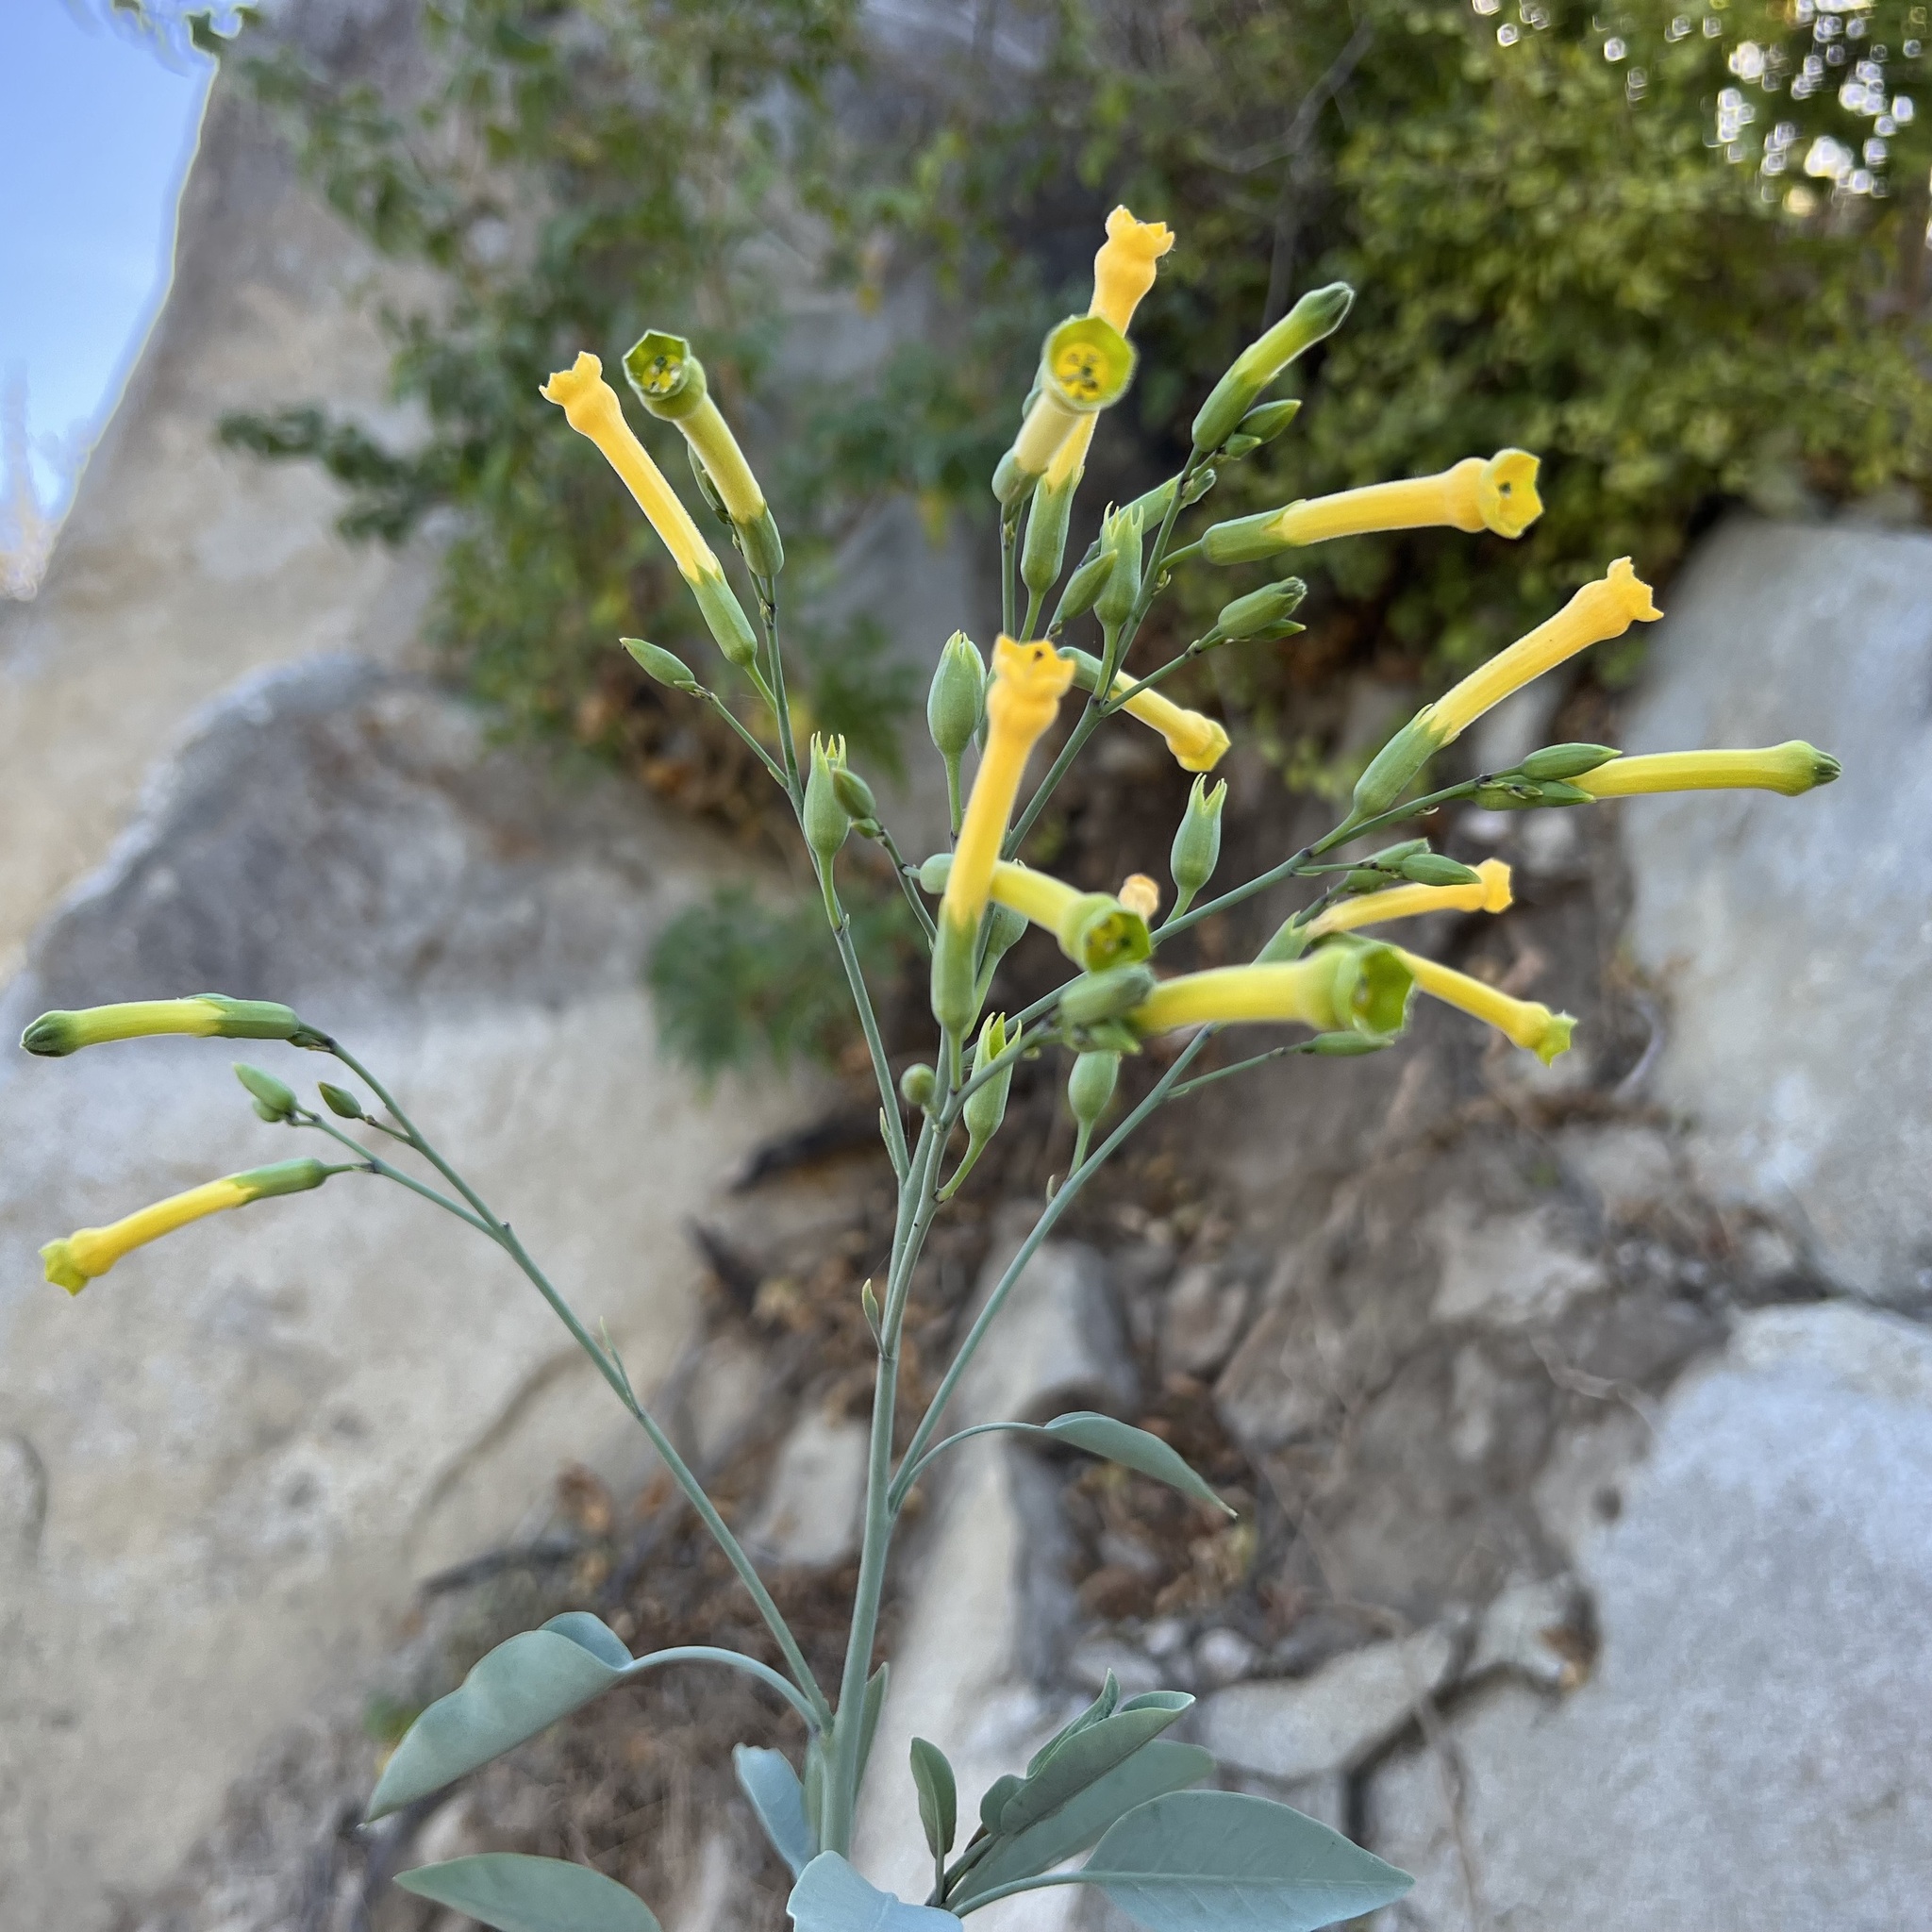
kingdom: Plantae
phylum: Tracheophyta
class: Magnoliopsida
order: Solanales
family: Solanaceae
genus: Nicotiana
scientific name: Nicotiana glauca
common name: Tree tobacco
